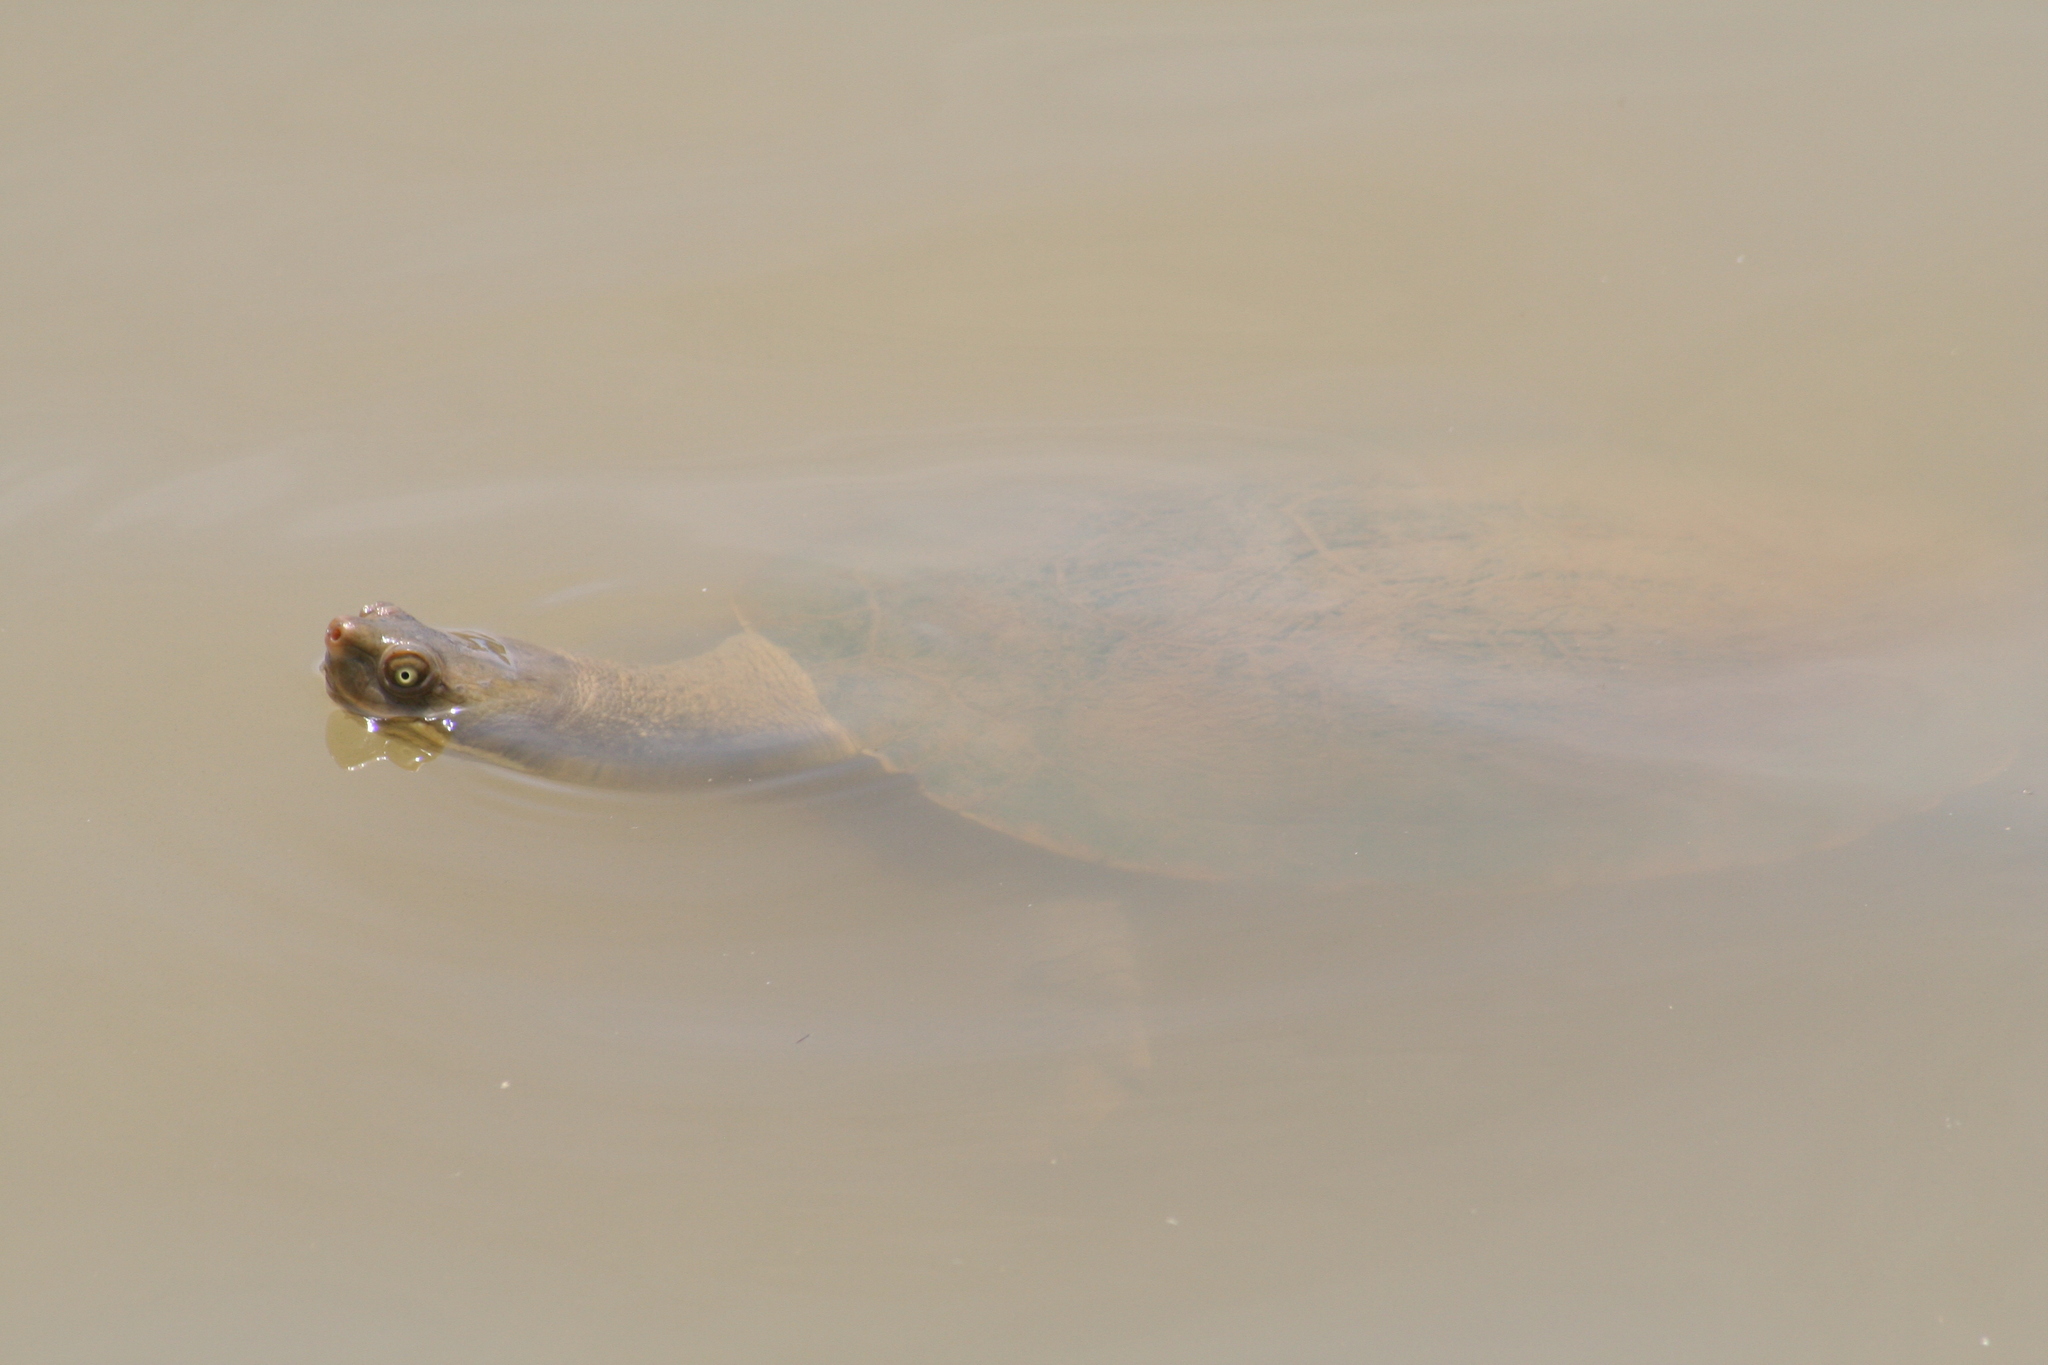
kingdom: Animalia
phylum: Chordata
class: Testudines
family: Chelidae
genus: Emydura
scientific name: Emydura macquarii
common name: Murray river turtle
